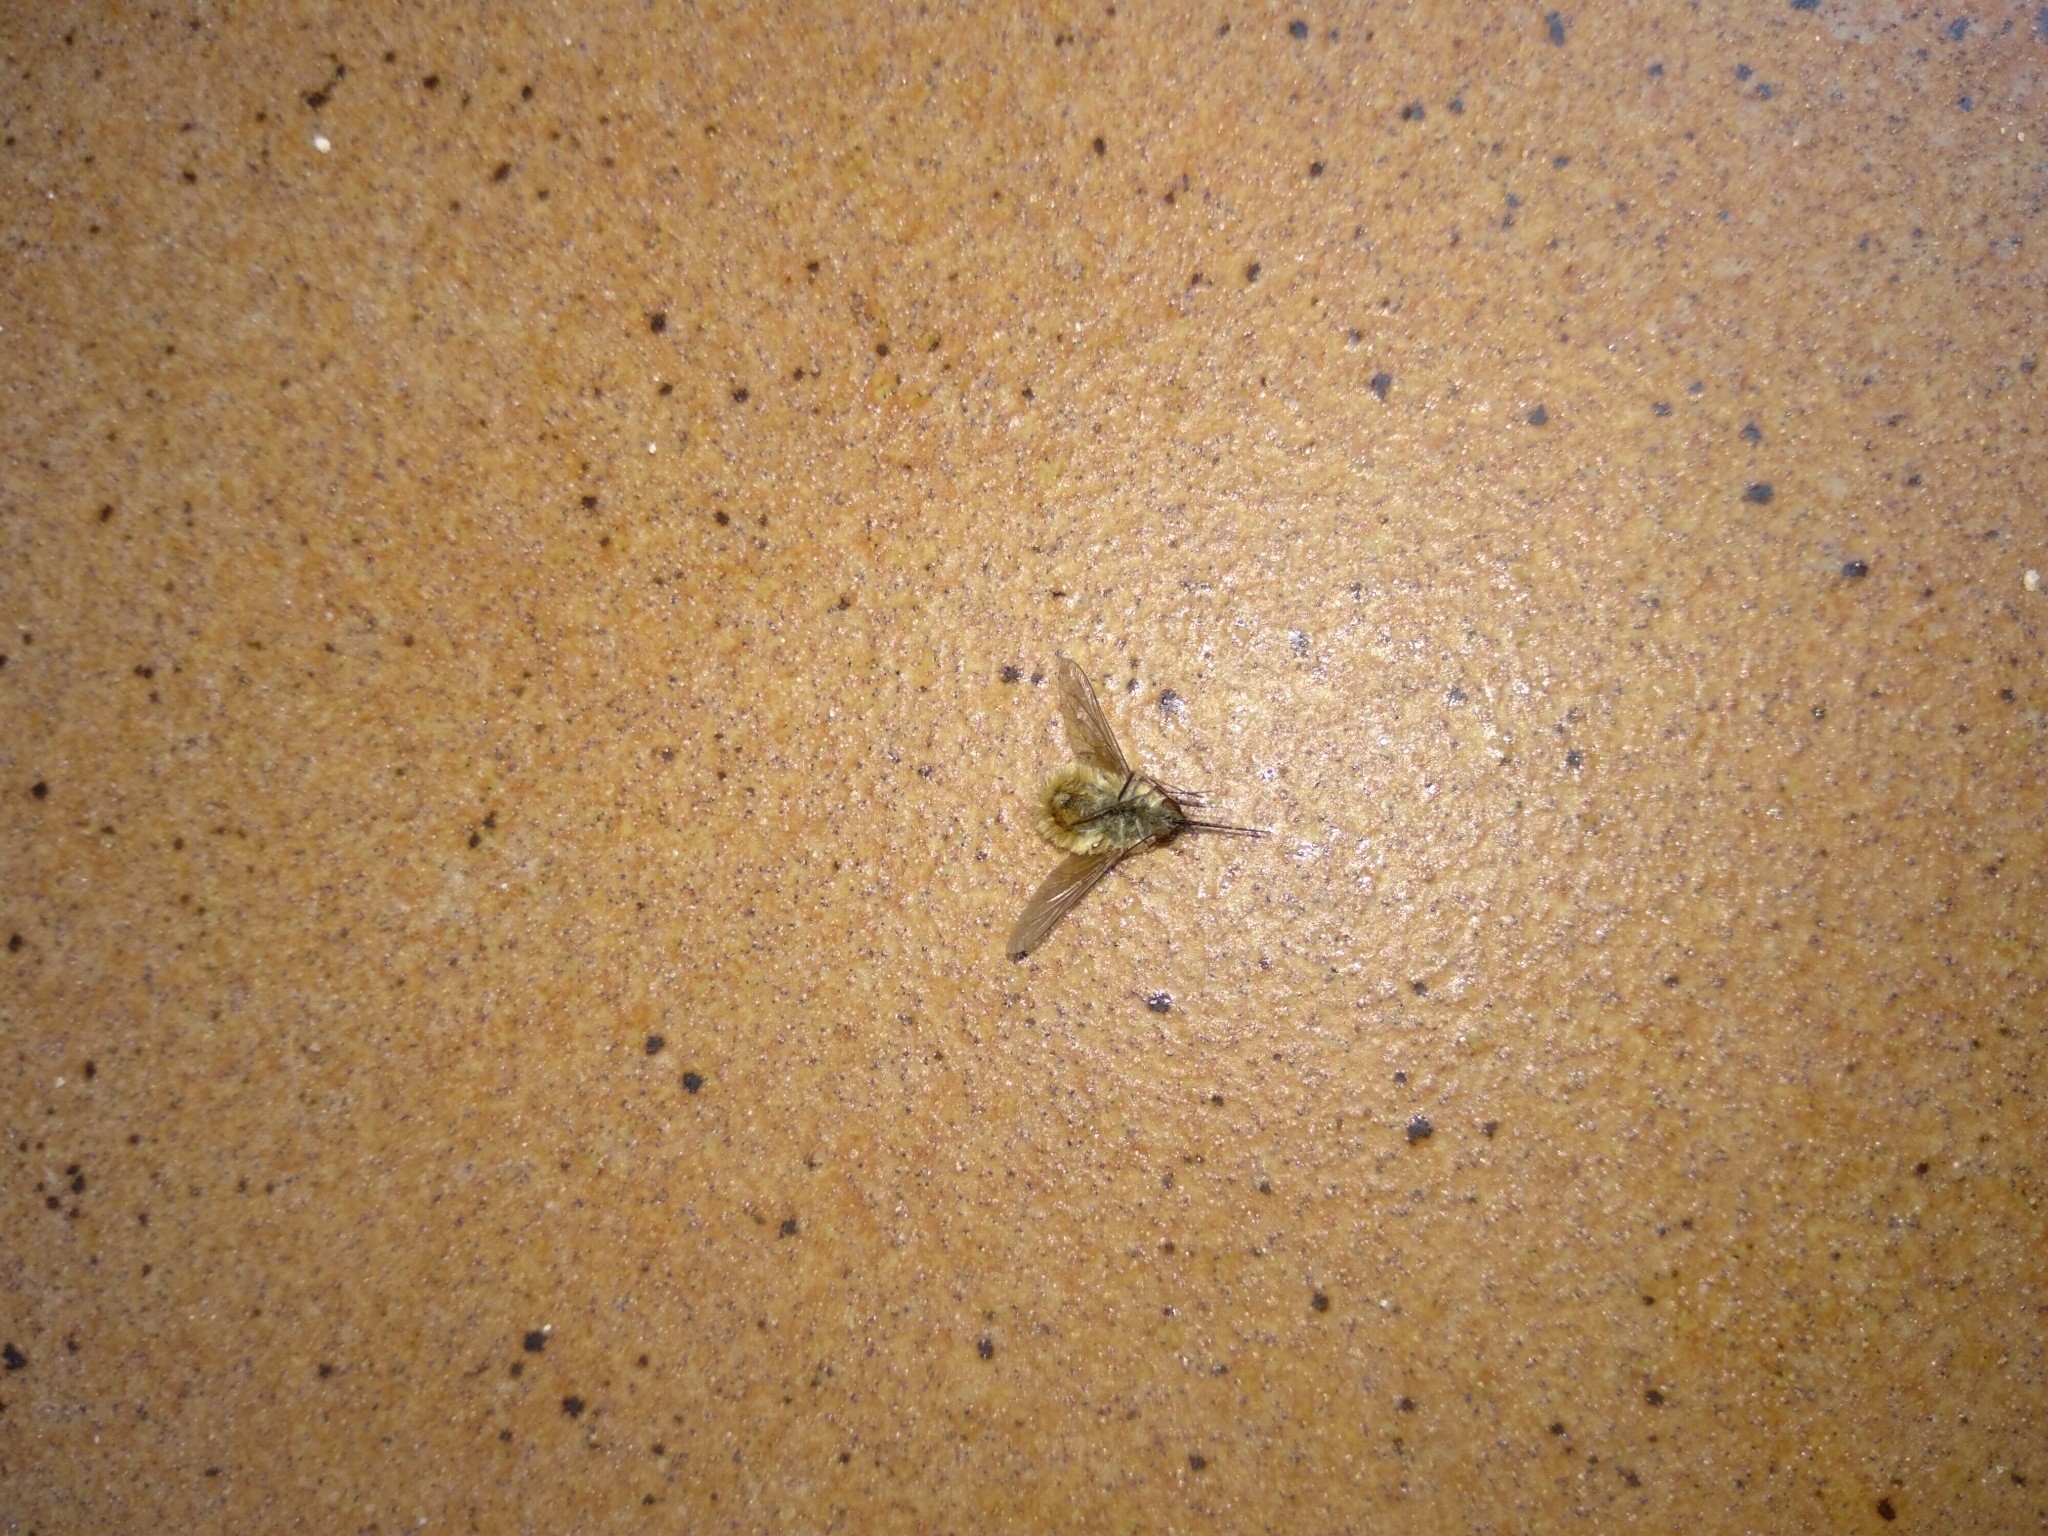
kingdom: Animalia
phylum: Arthropoda
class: Insecta
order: Diptera
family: Bombyliidae
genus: Systoechus
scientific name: Systoechus ctenopterus
